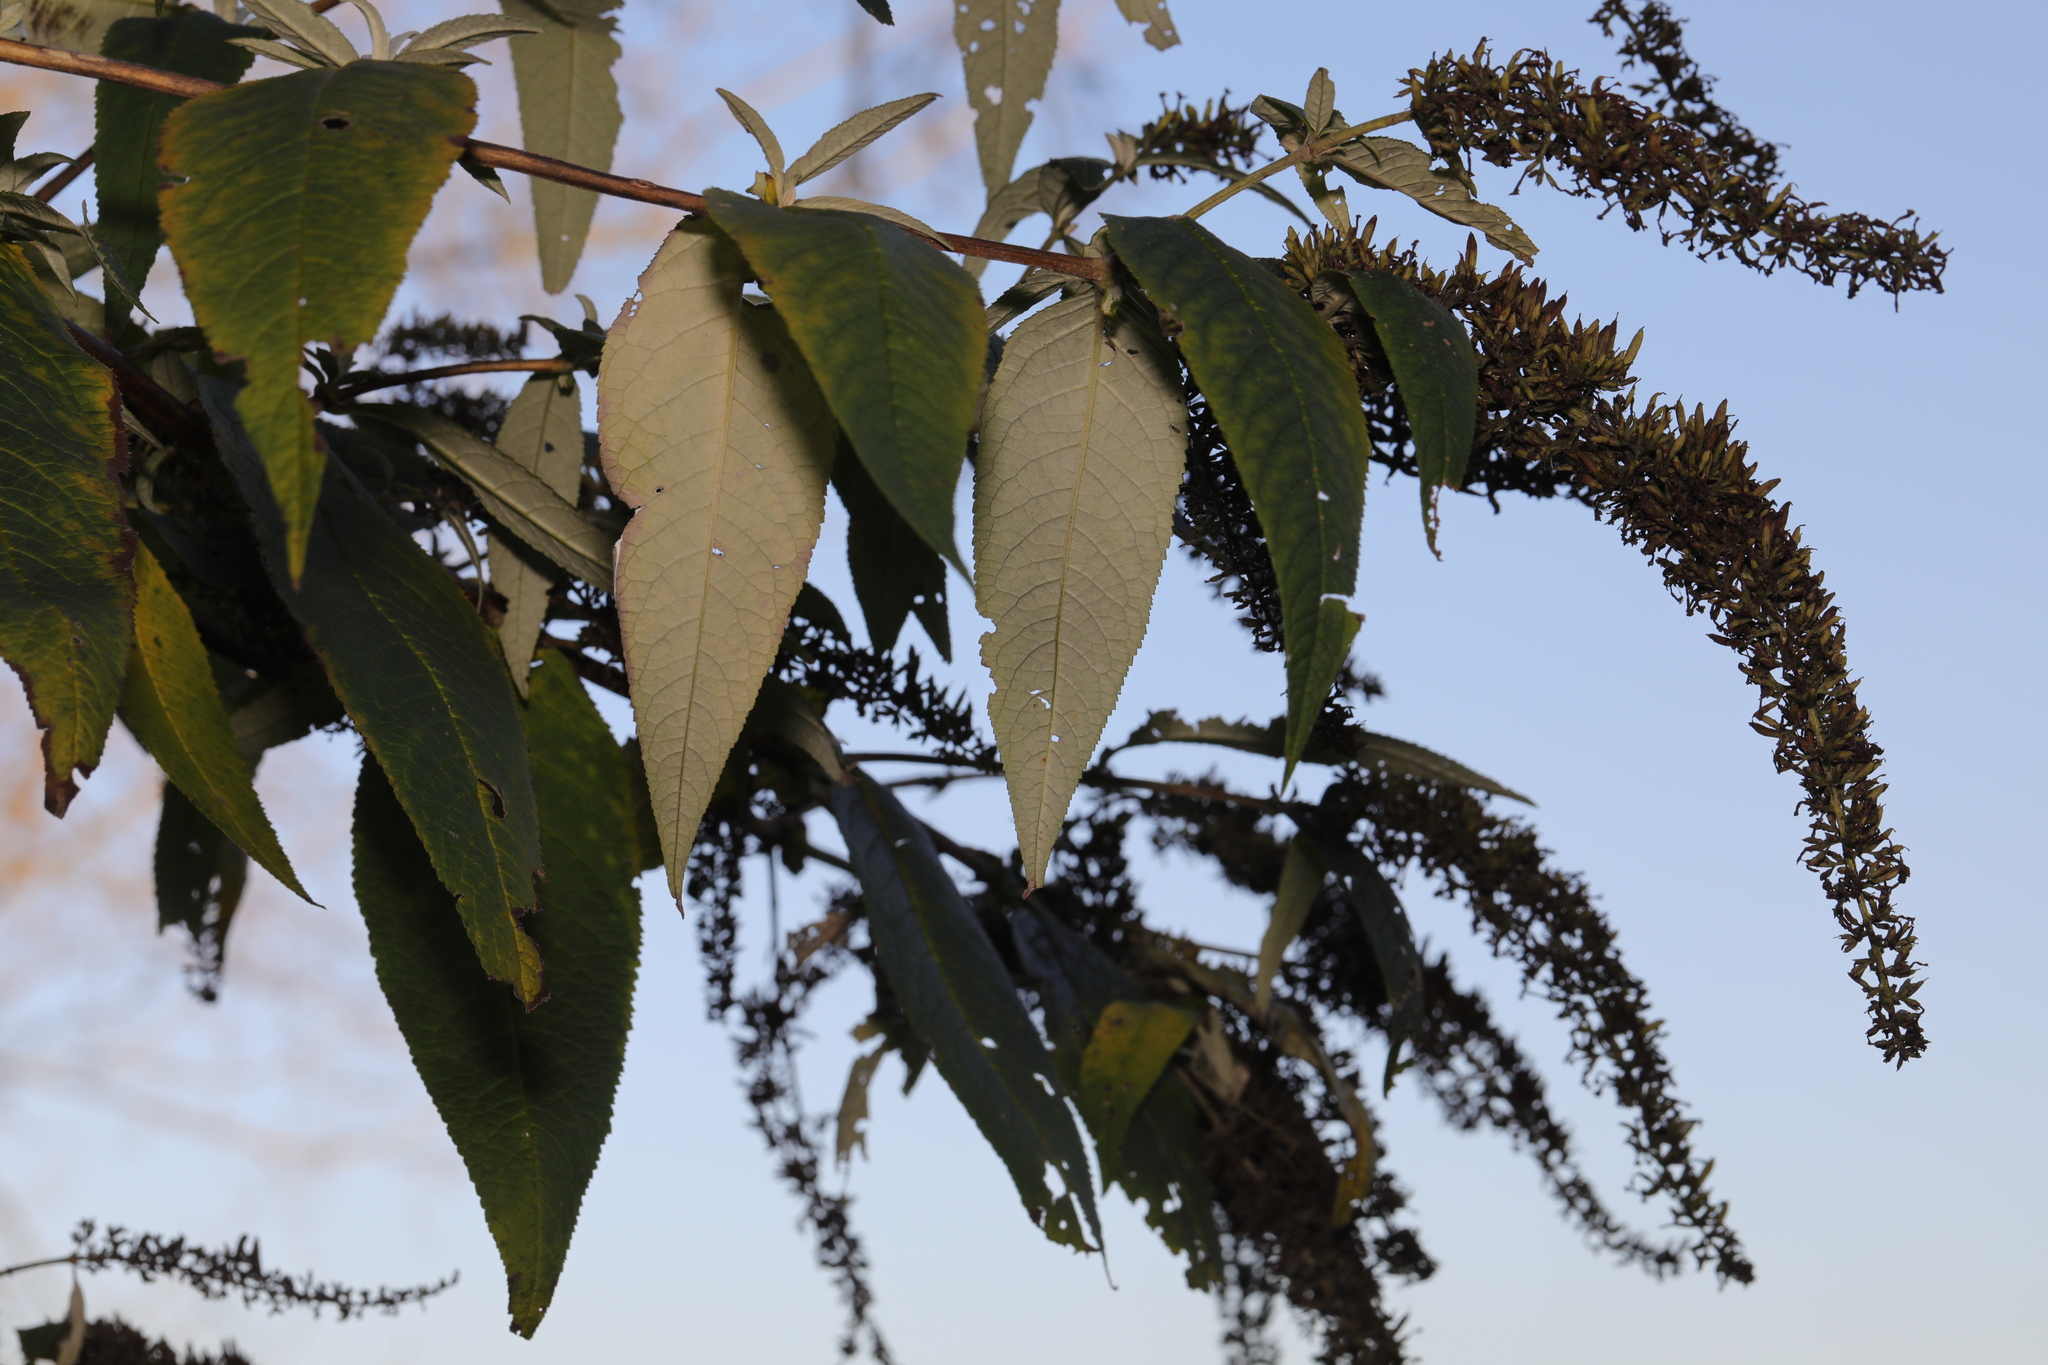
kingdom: Plantae
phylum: Tracheophyta
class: Magnoliopsida
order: Lamiales
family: Scrophulariaceae
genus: Buddleja
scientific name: Buddleja davidii
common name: Butterfly-bush
